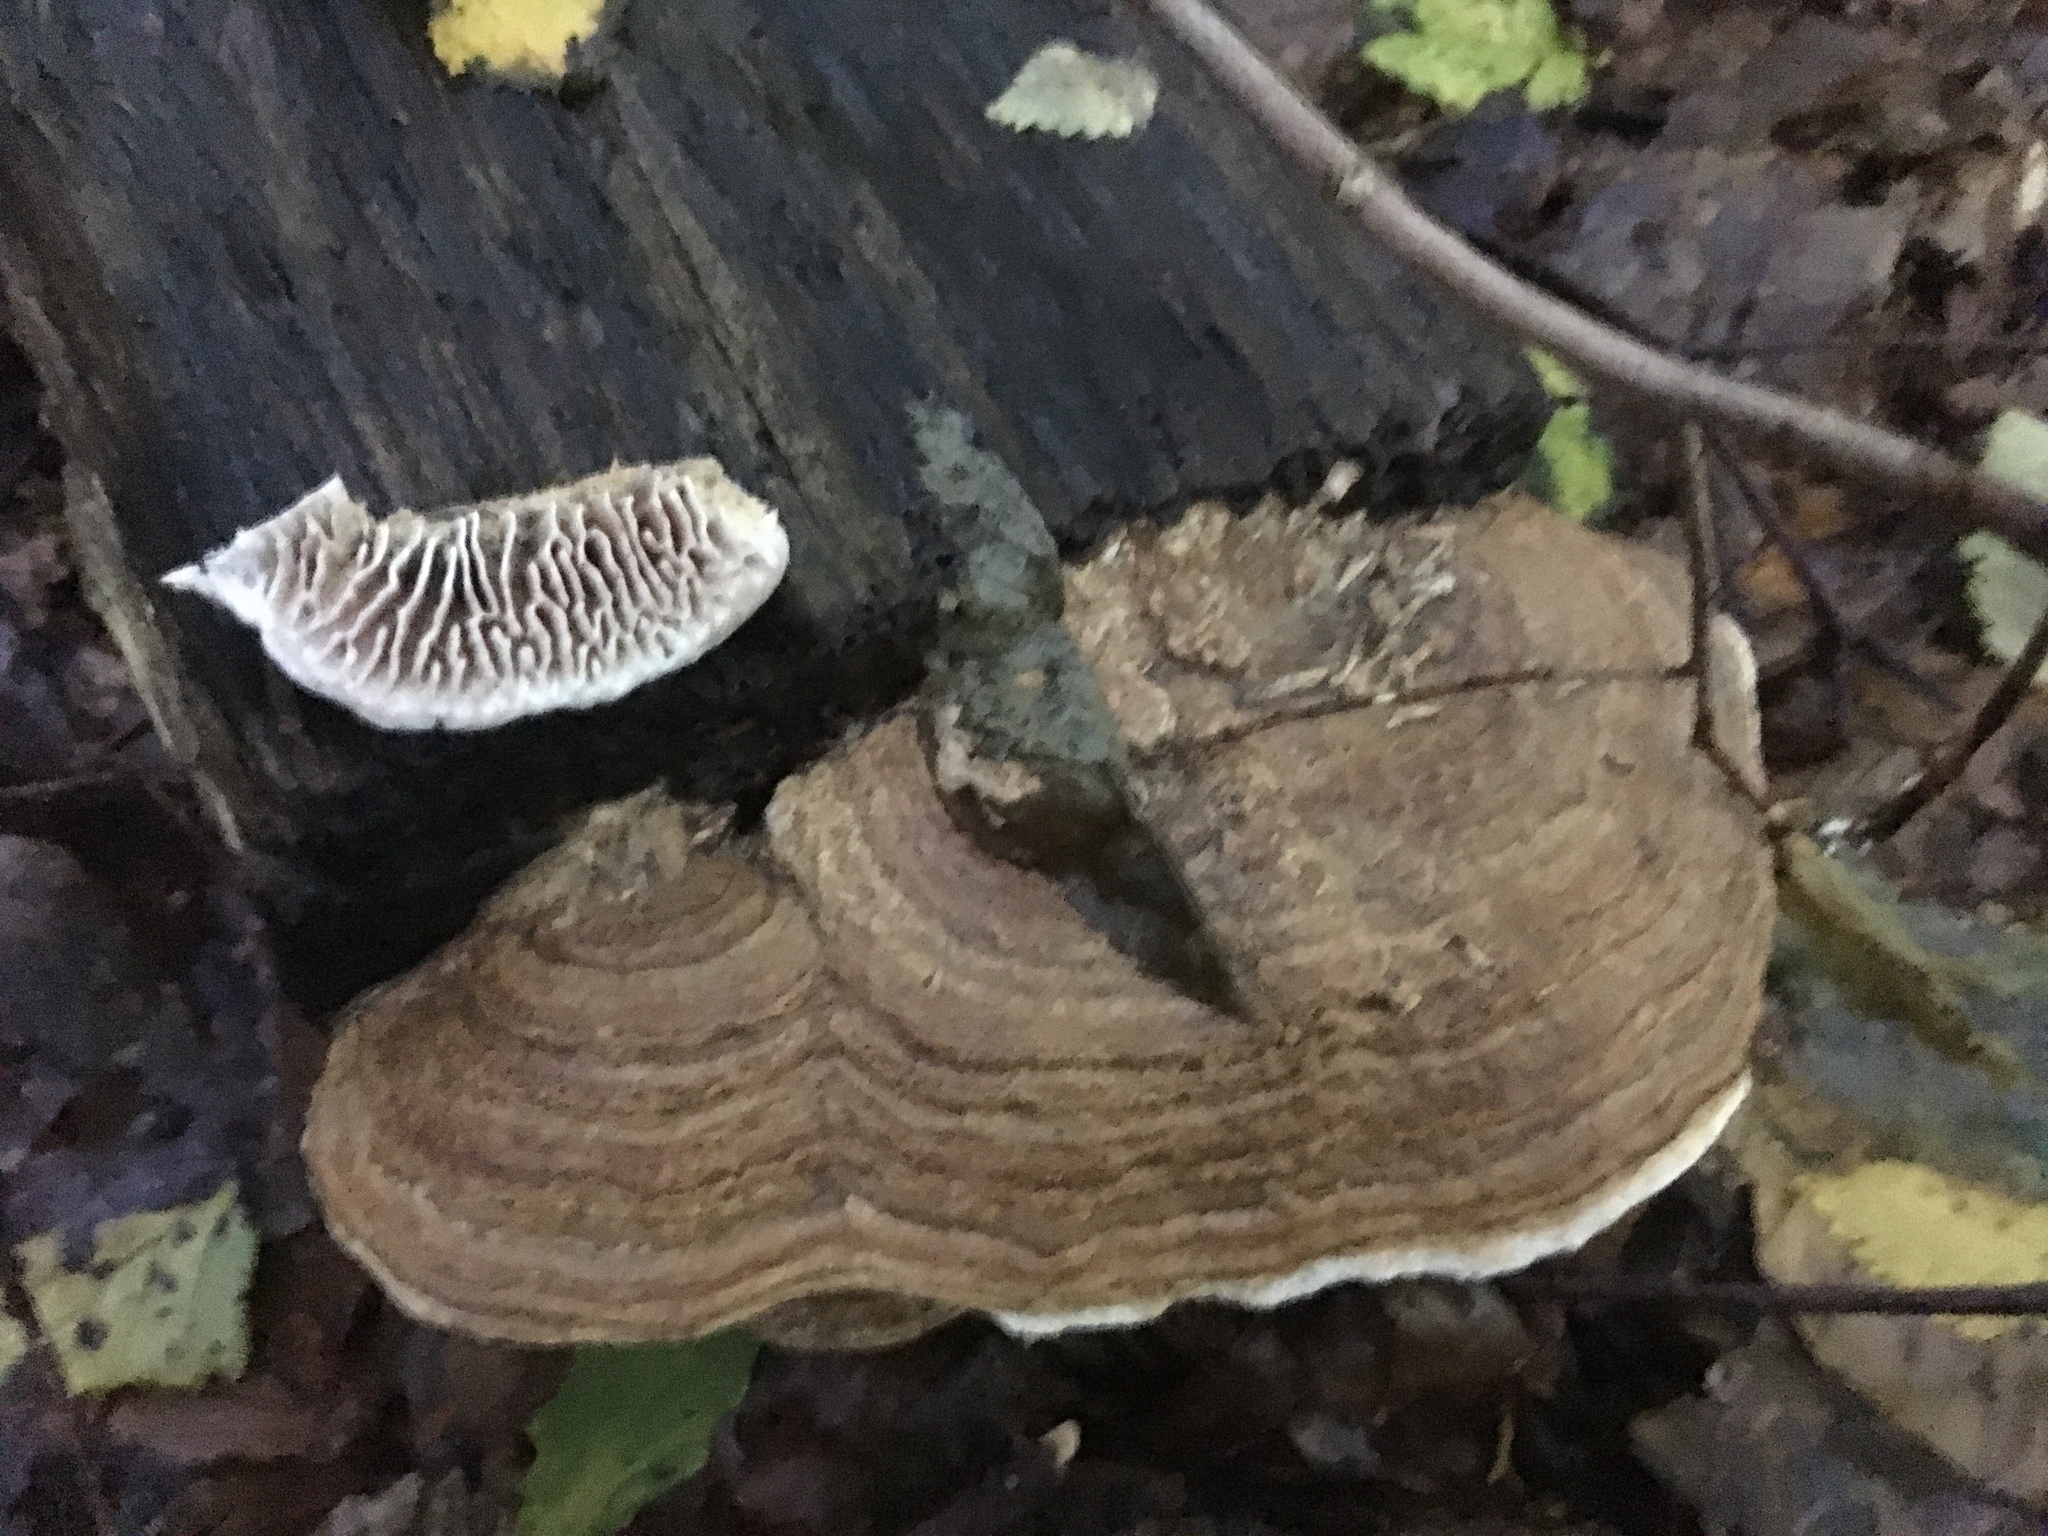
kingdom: Fungi
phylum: Basidiomycota
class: Agaricomycetes
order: Polyporales
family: Fomitopsidaceae
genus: Fomitopsis
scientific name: Fomitopsis
